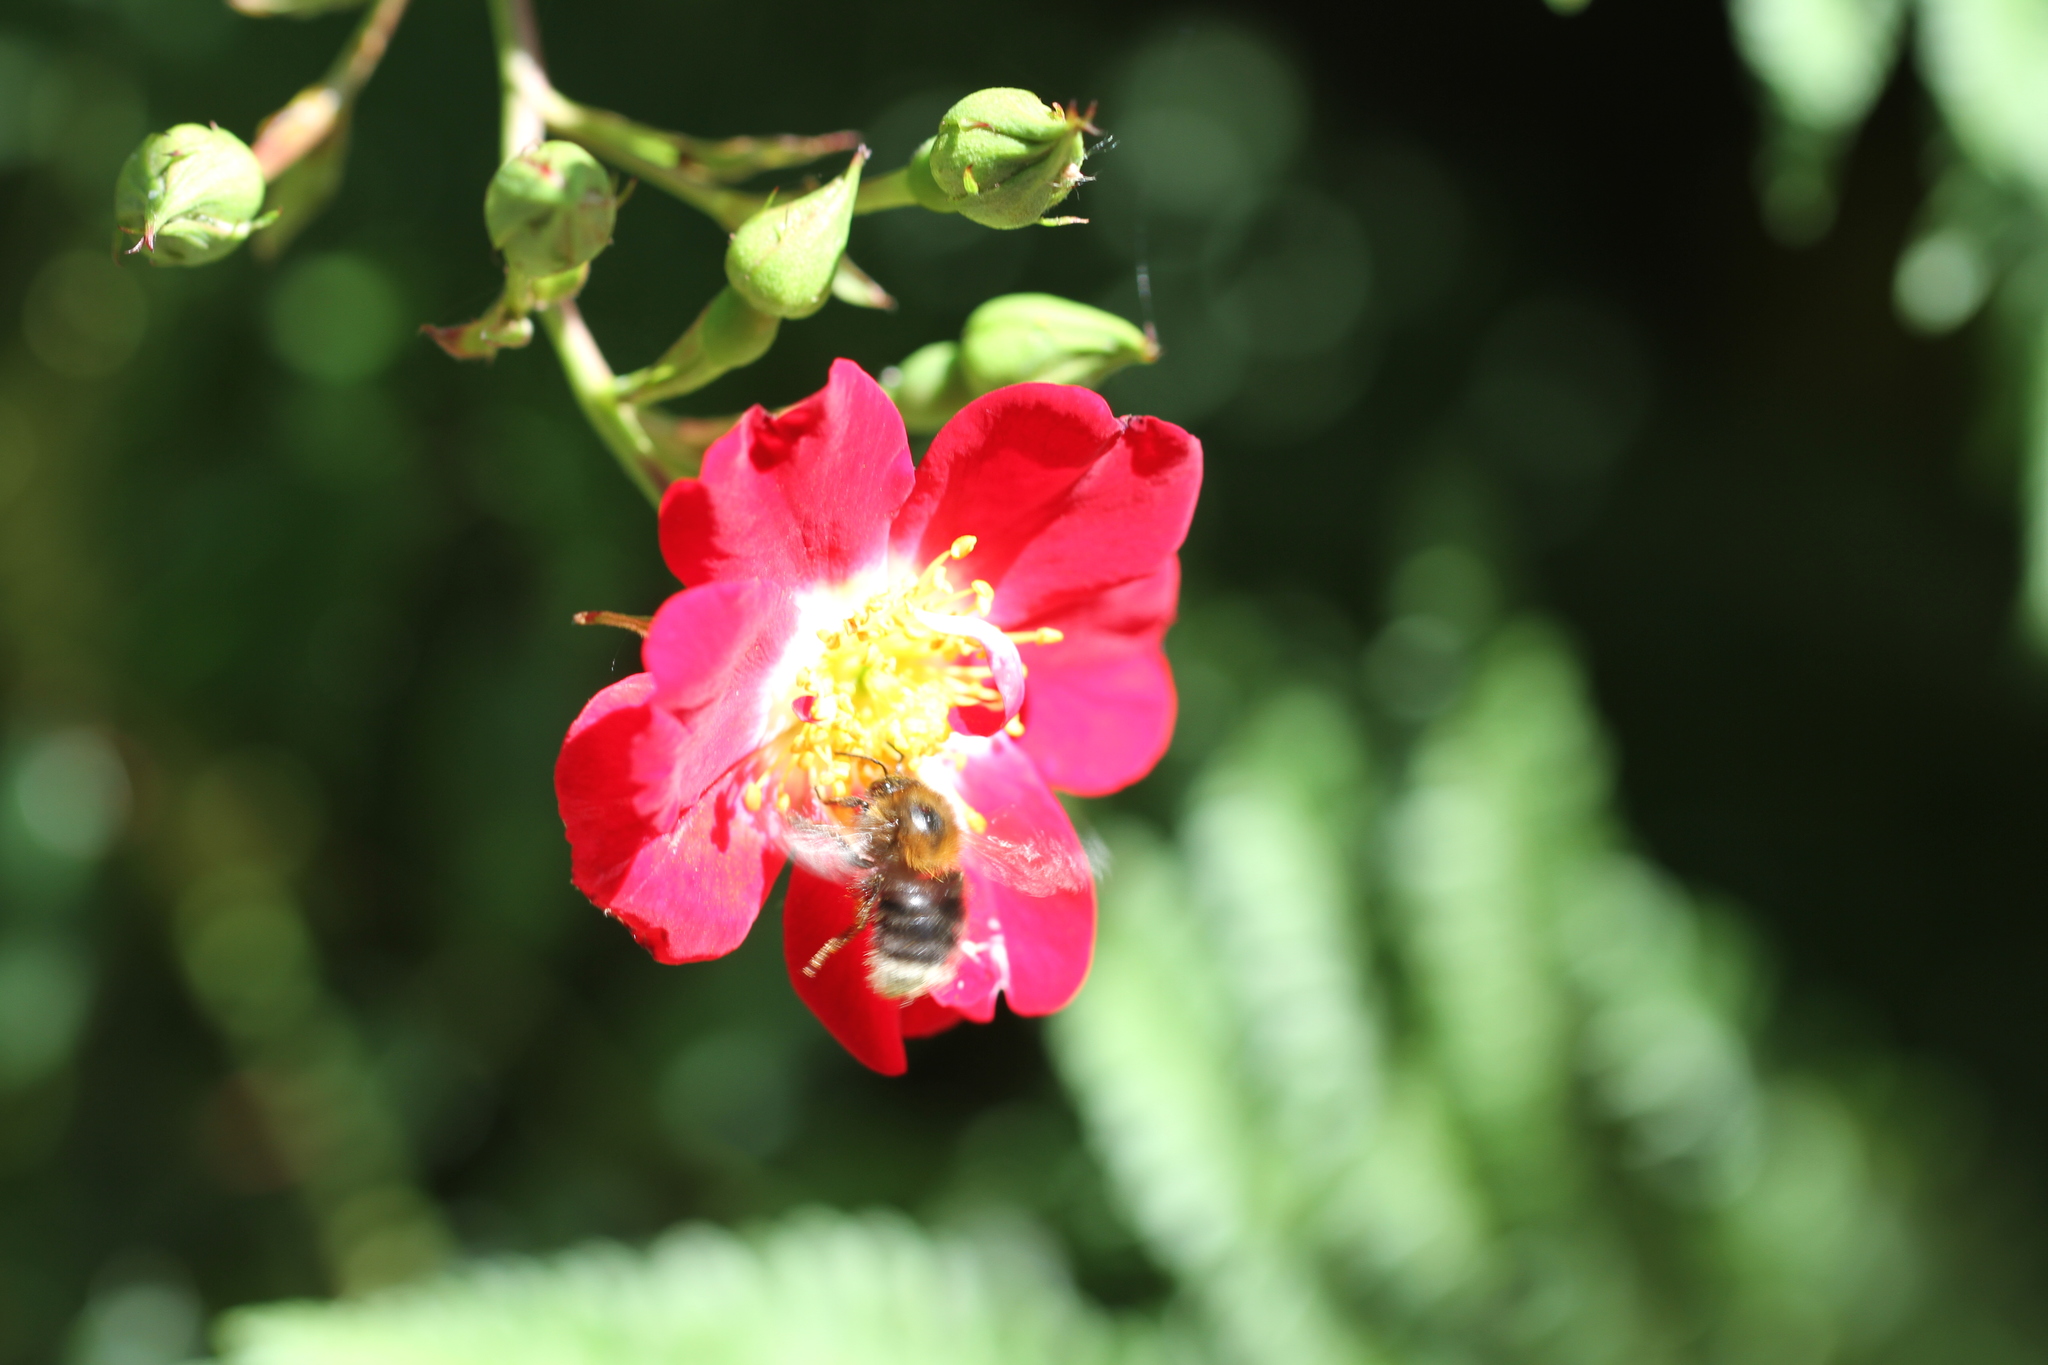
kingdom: Animalia
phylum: Arthropoda
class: Insecta
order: Hymenoptera
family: Apidae
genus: Bombus
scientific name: Bombus hypnorum
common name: New garden bumblebee
